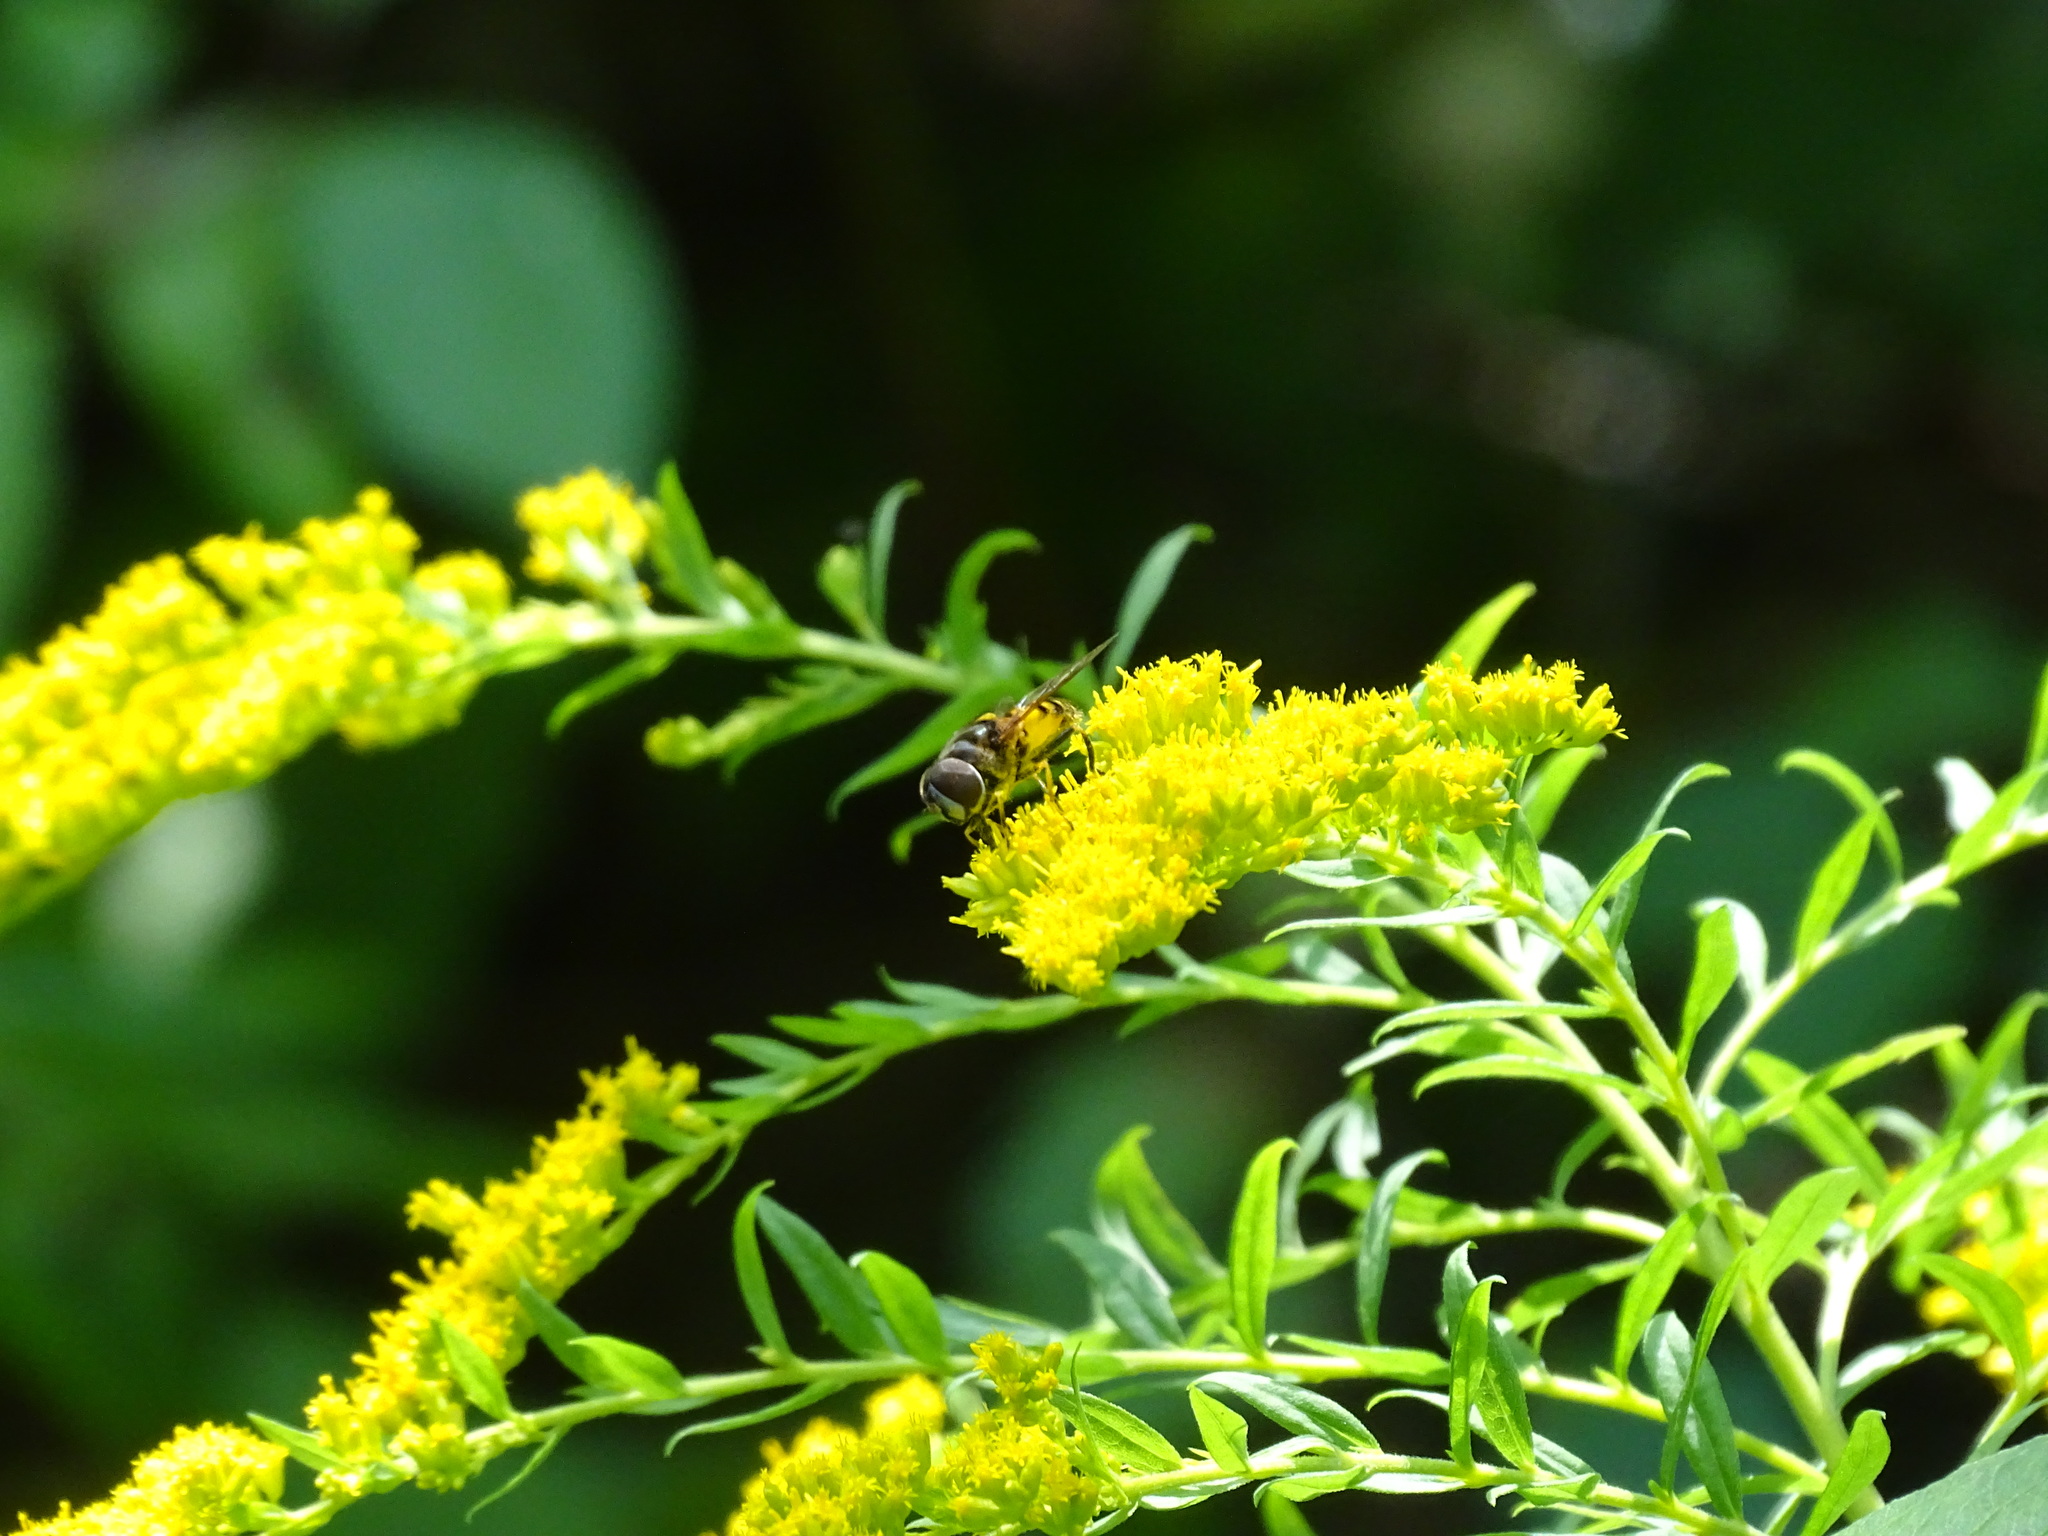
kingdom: Animalia
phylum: Arthropoda
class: Insecta
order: Diptera
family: Syrphidae
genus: Eristalis
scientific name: Eristalis transversa
